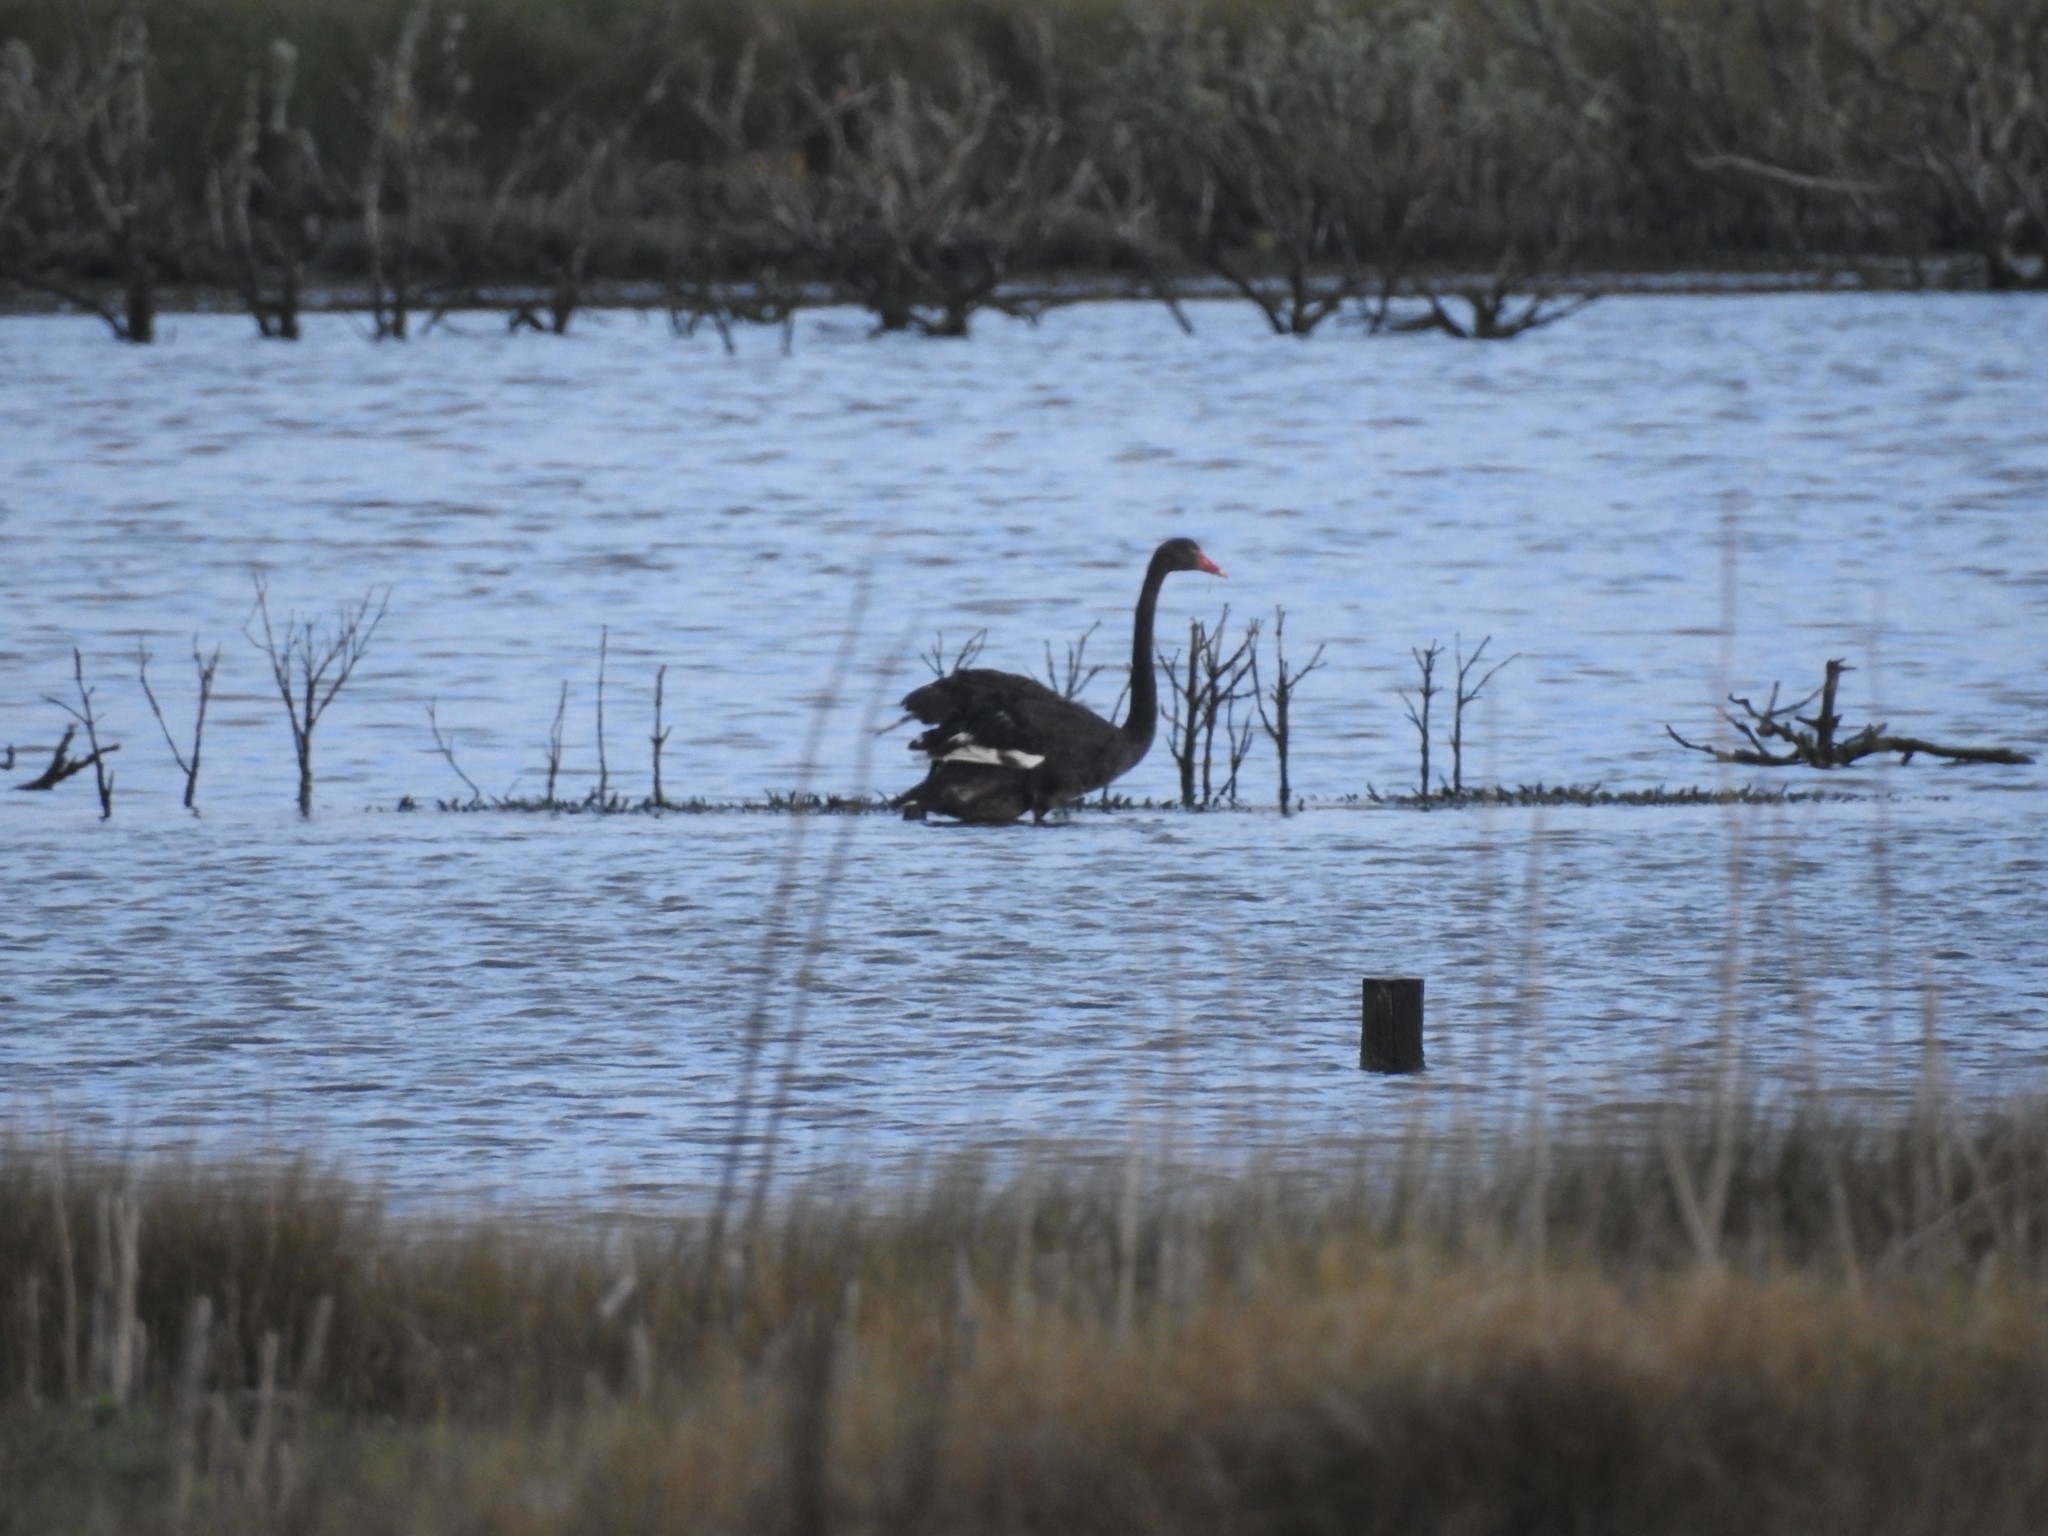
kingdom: Animalia
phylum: Chordata
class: Aves
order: Anseriformes
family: Anatidae
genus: Cygnus
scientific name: Cygnus atratus
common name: Black swan
